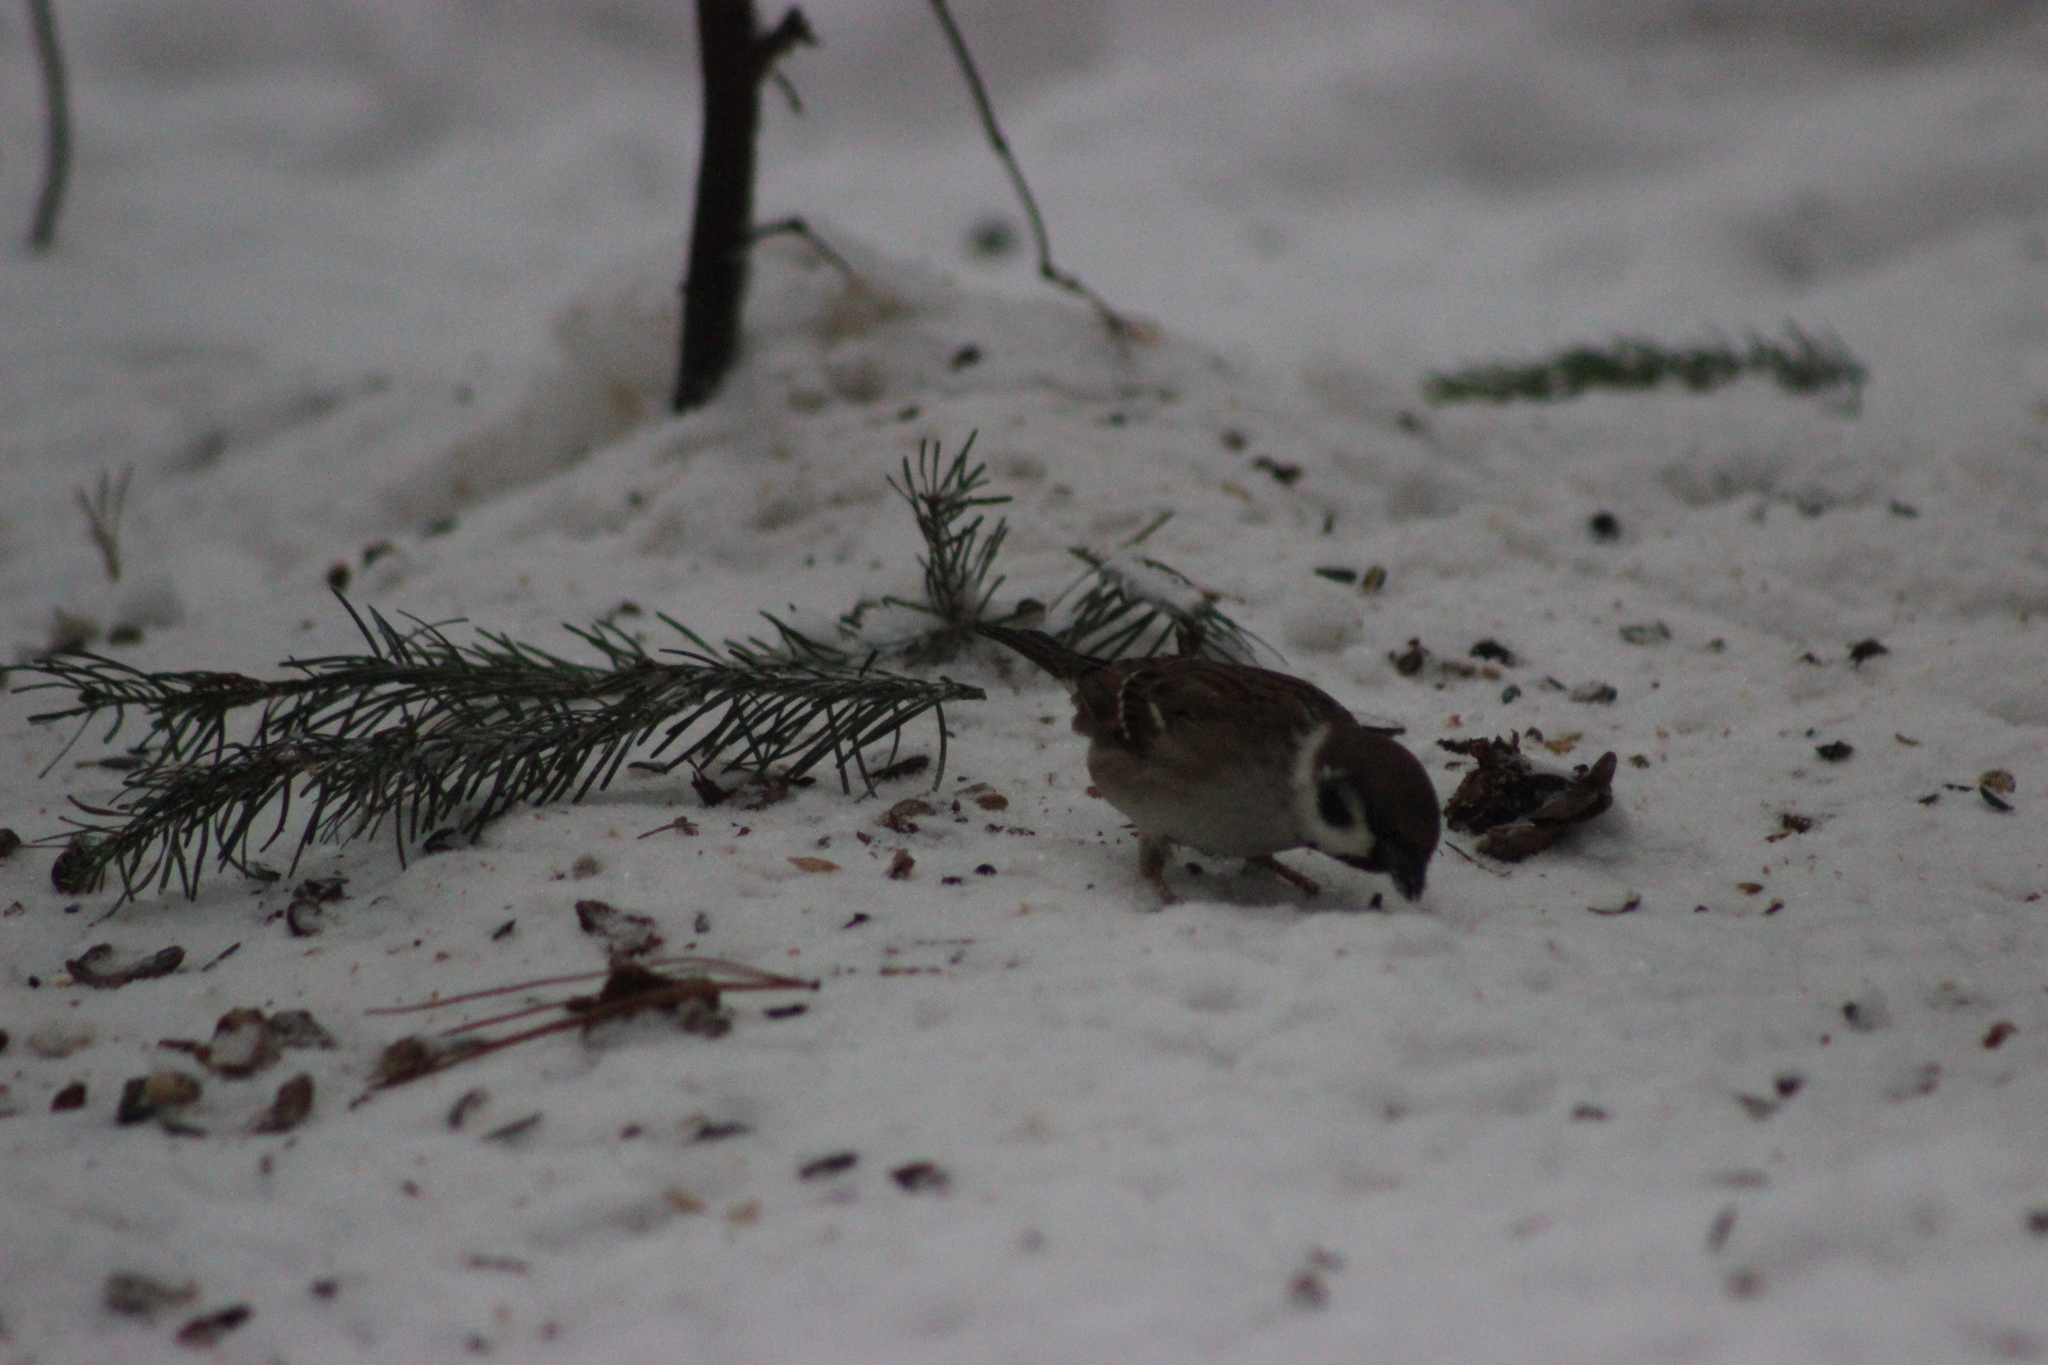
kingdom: Animalia
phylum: Chordata
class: Aves
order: Passeriformes
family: Passeridae
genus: Passer
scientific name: Passer montanus
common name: Eurasian tree sparrow
